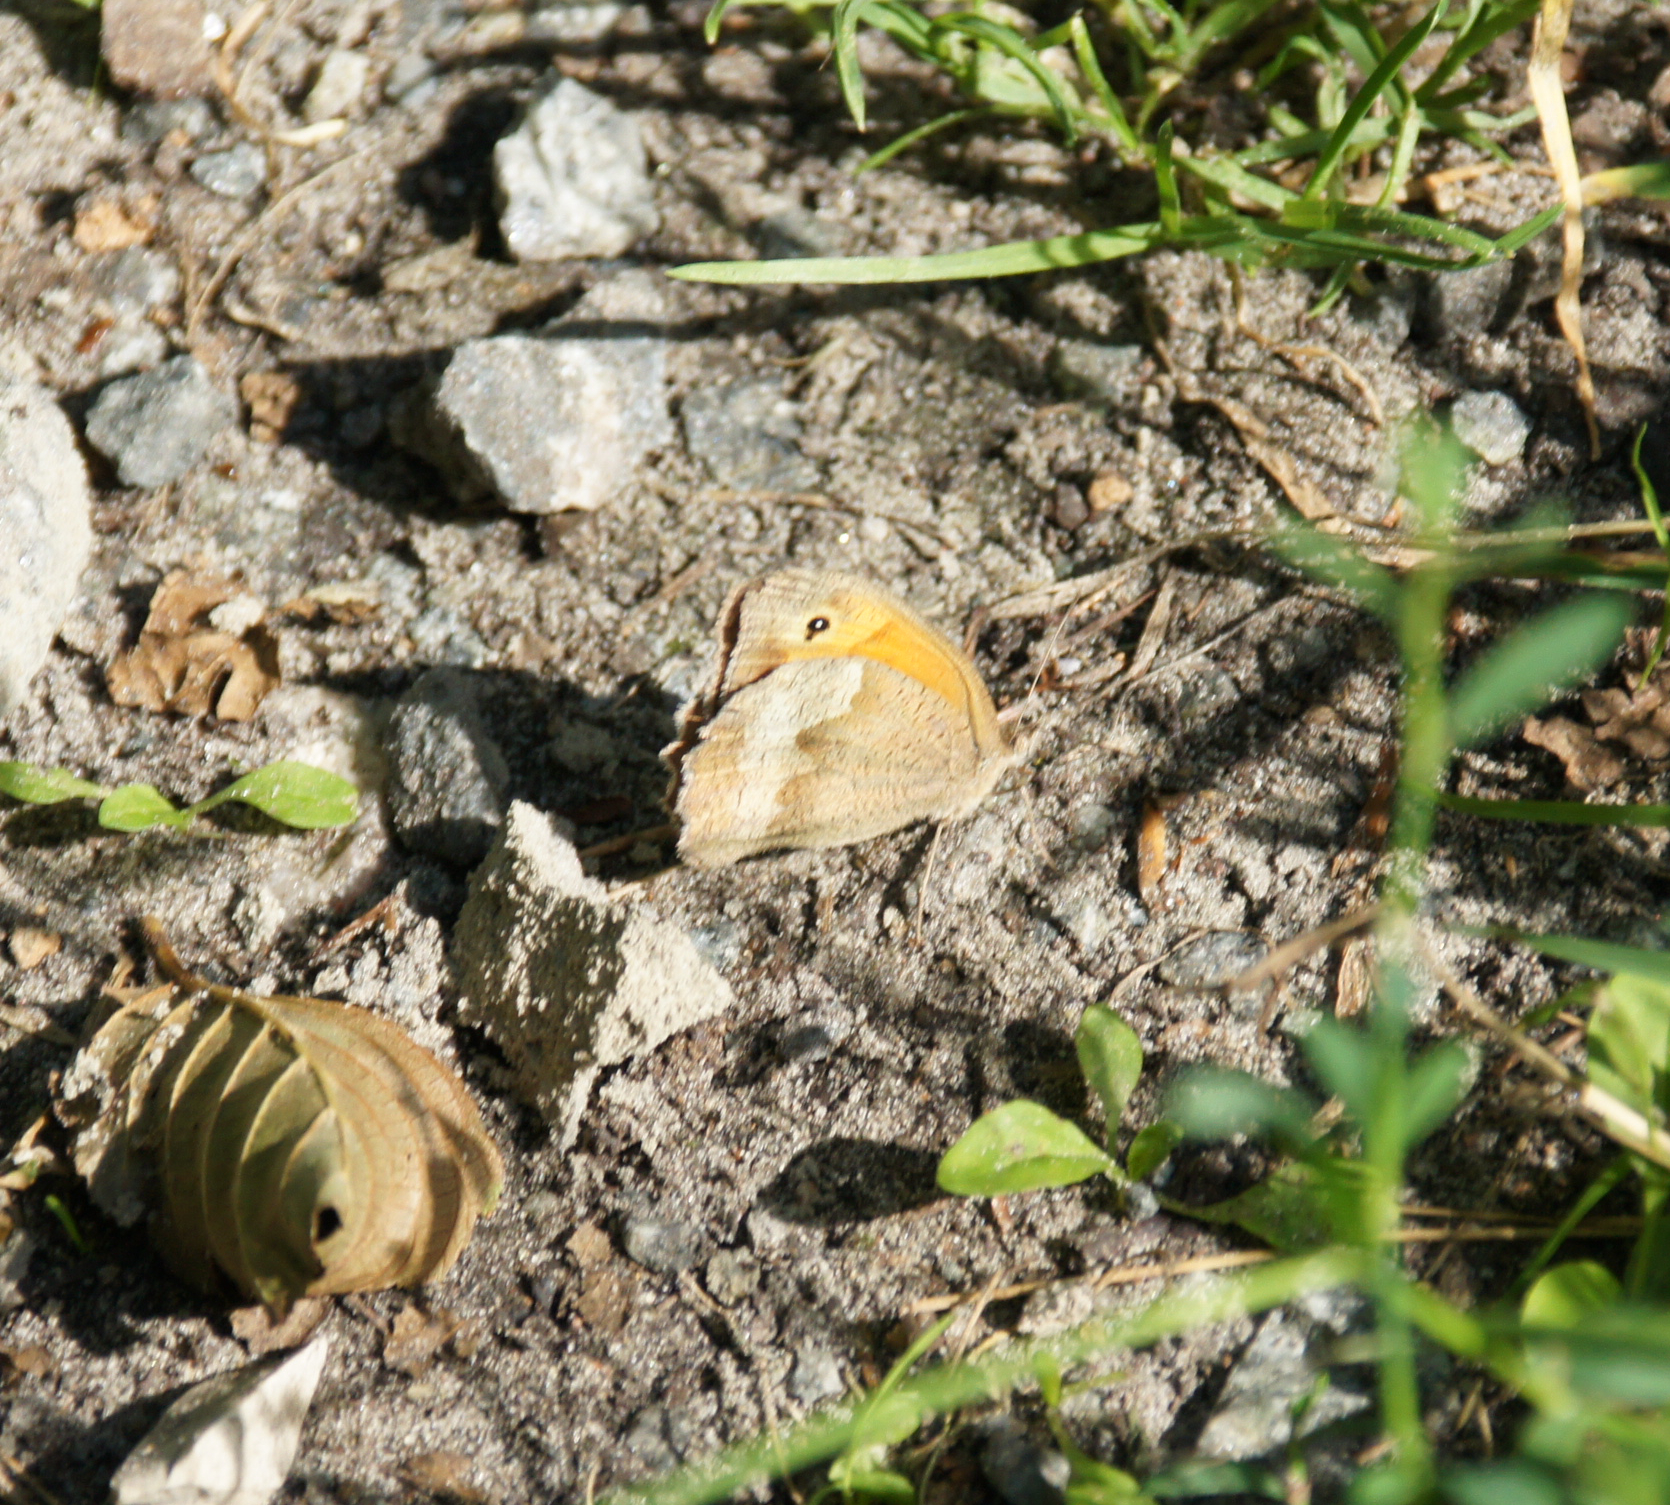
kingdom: Animalia
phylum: Arthropoda
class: Insecta
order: Lepidoptera
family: Nymphalidae
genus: Maniola
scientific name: Maniola jurtina
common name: Meadow brown
